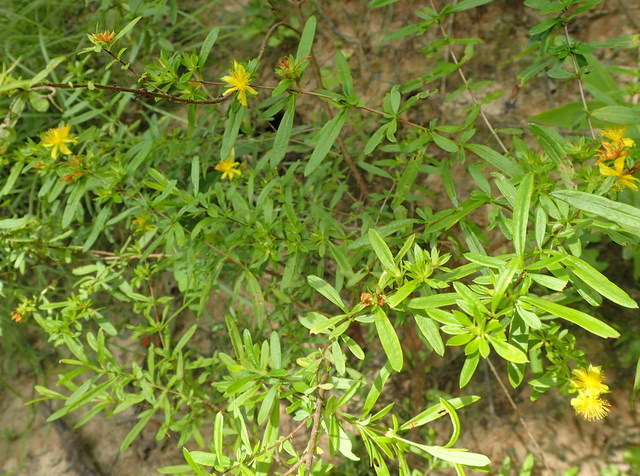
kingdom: Plantae
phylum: Tracheophyta
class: Magnoliopsida
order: Malpighiales
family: Hypericaceae
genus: Hypericum
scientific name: Hypericum prolificum
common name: Shrubby st. john's-wort
